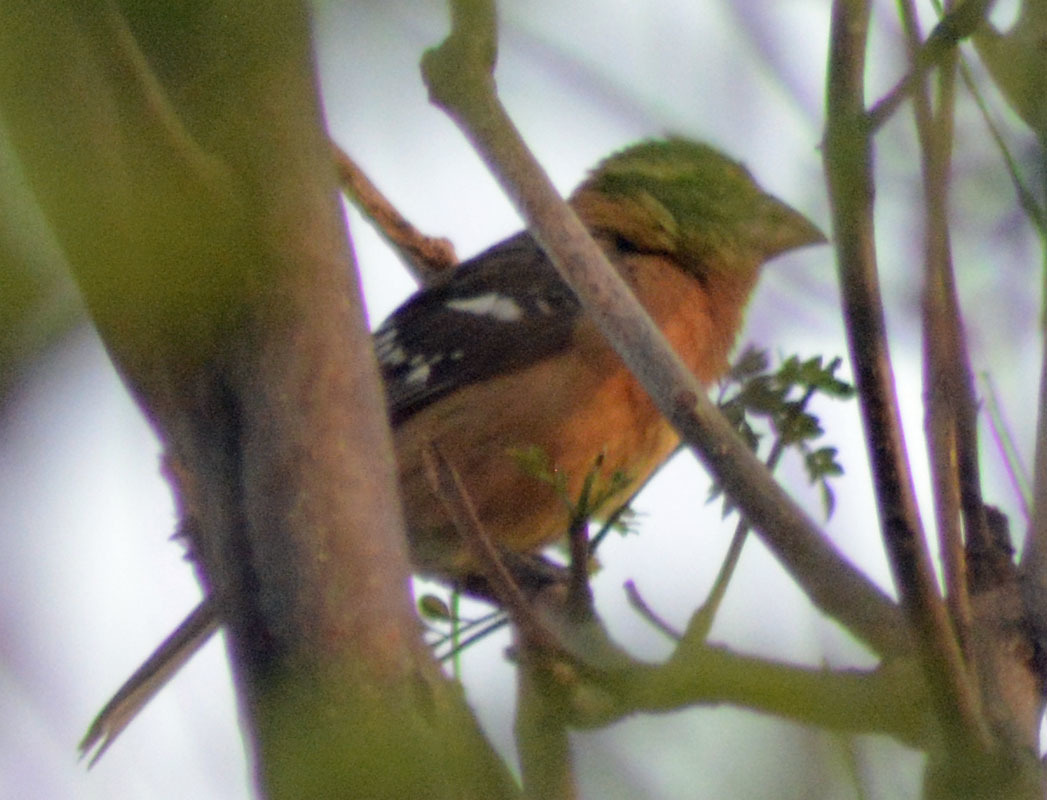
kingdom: Animalia
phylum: Chordata
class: Aves
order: Passeriformes
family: Cardinalidae
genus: Pheucticus
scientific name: Pheucticus melanocephalus
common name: Black-headed grosbeak
